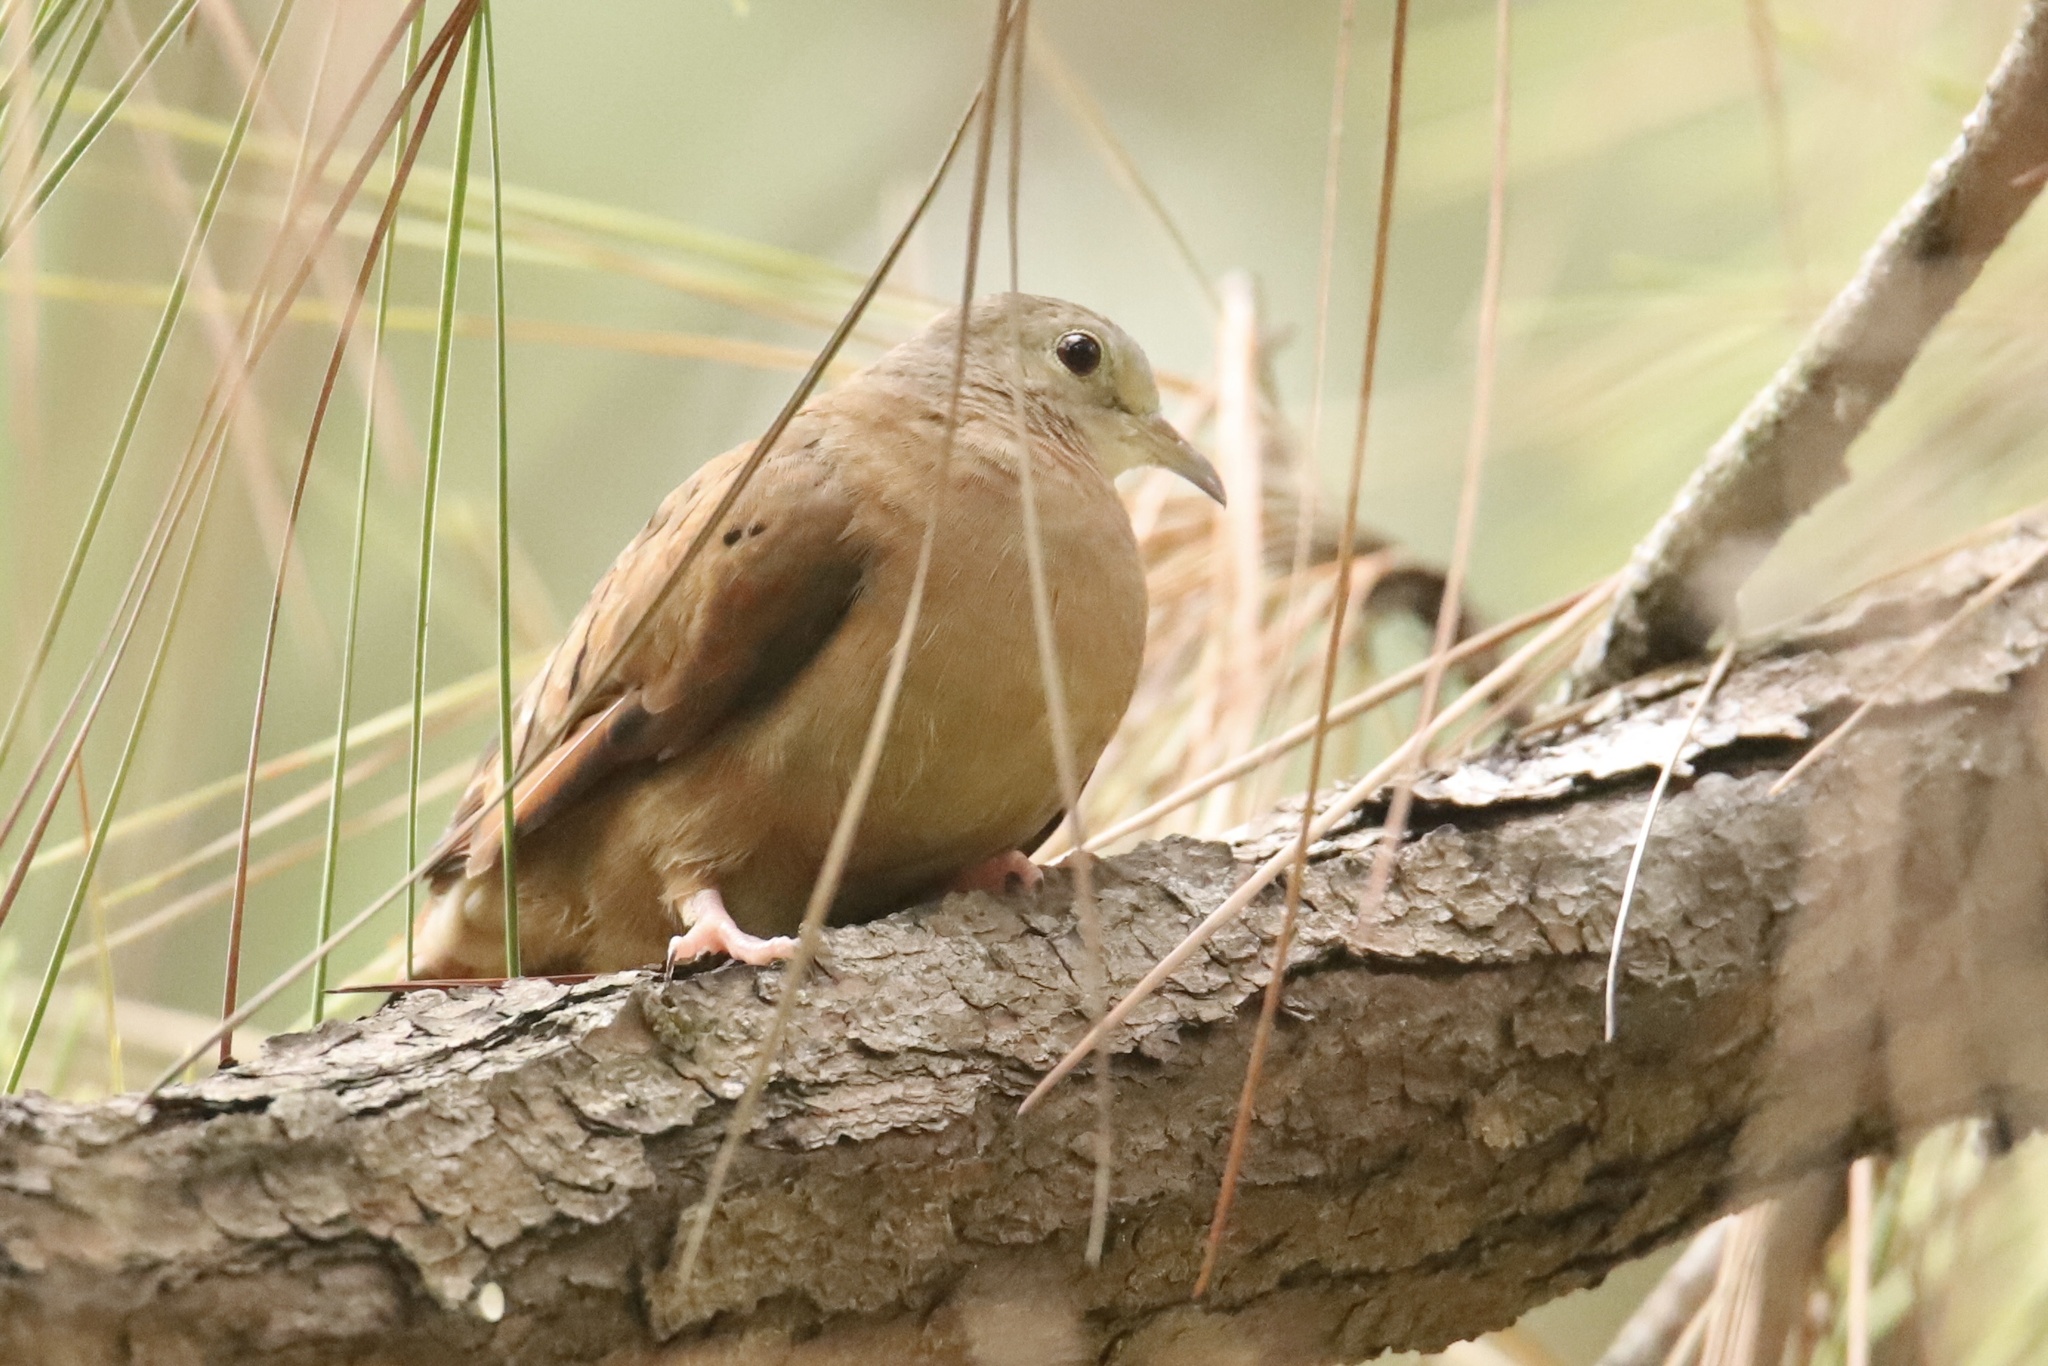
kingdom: Animalia
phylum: Chordata
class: Aves
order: Columbiformes
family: Columbidae
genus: Columbina
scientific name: Columbina talpacoti
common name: Ruddy ground dove
